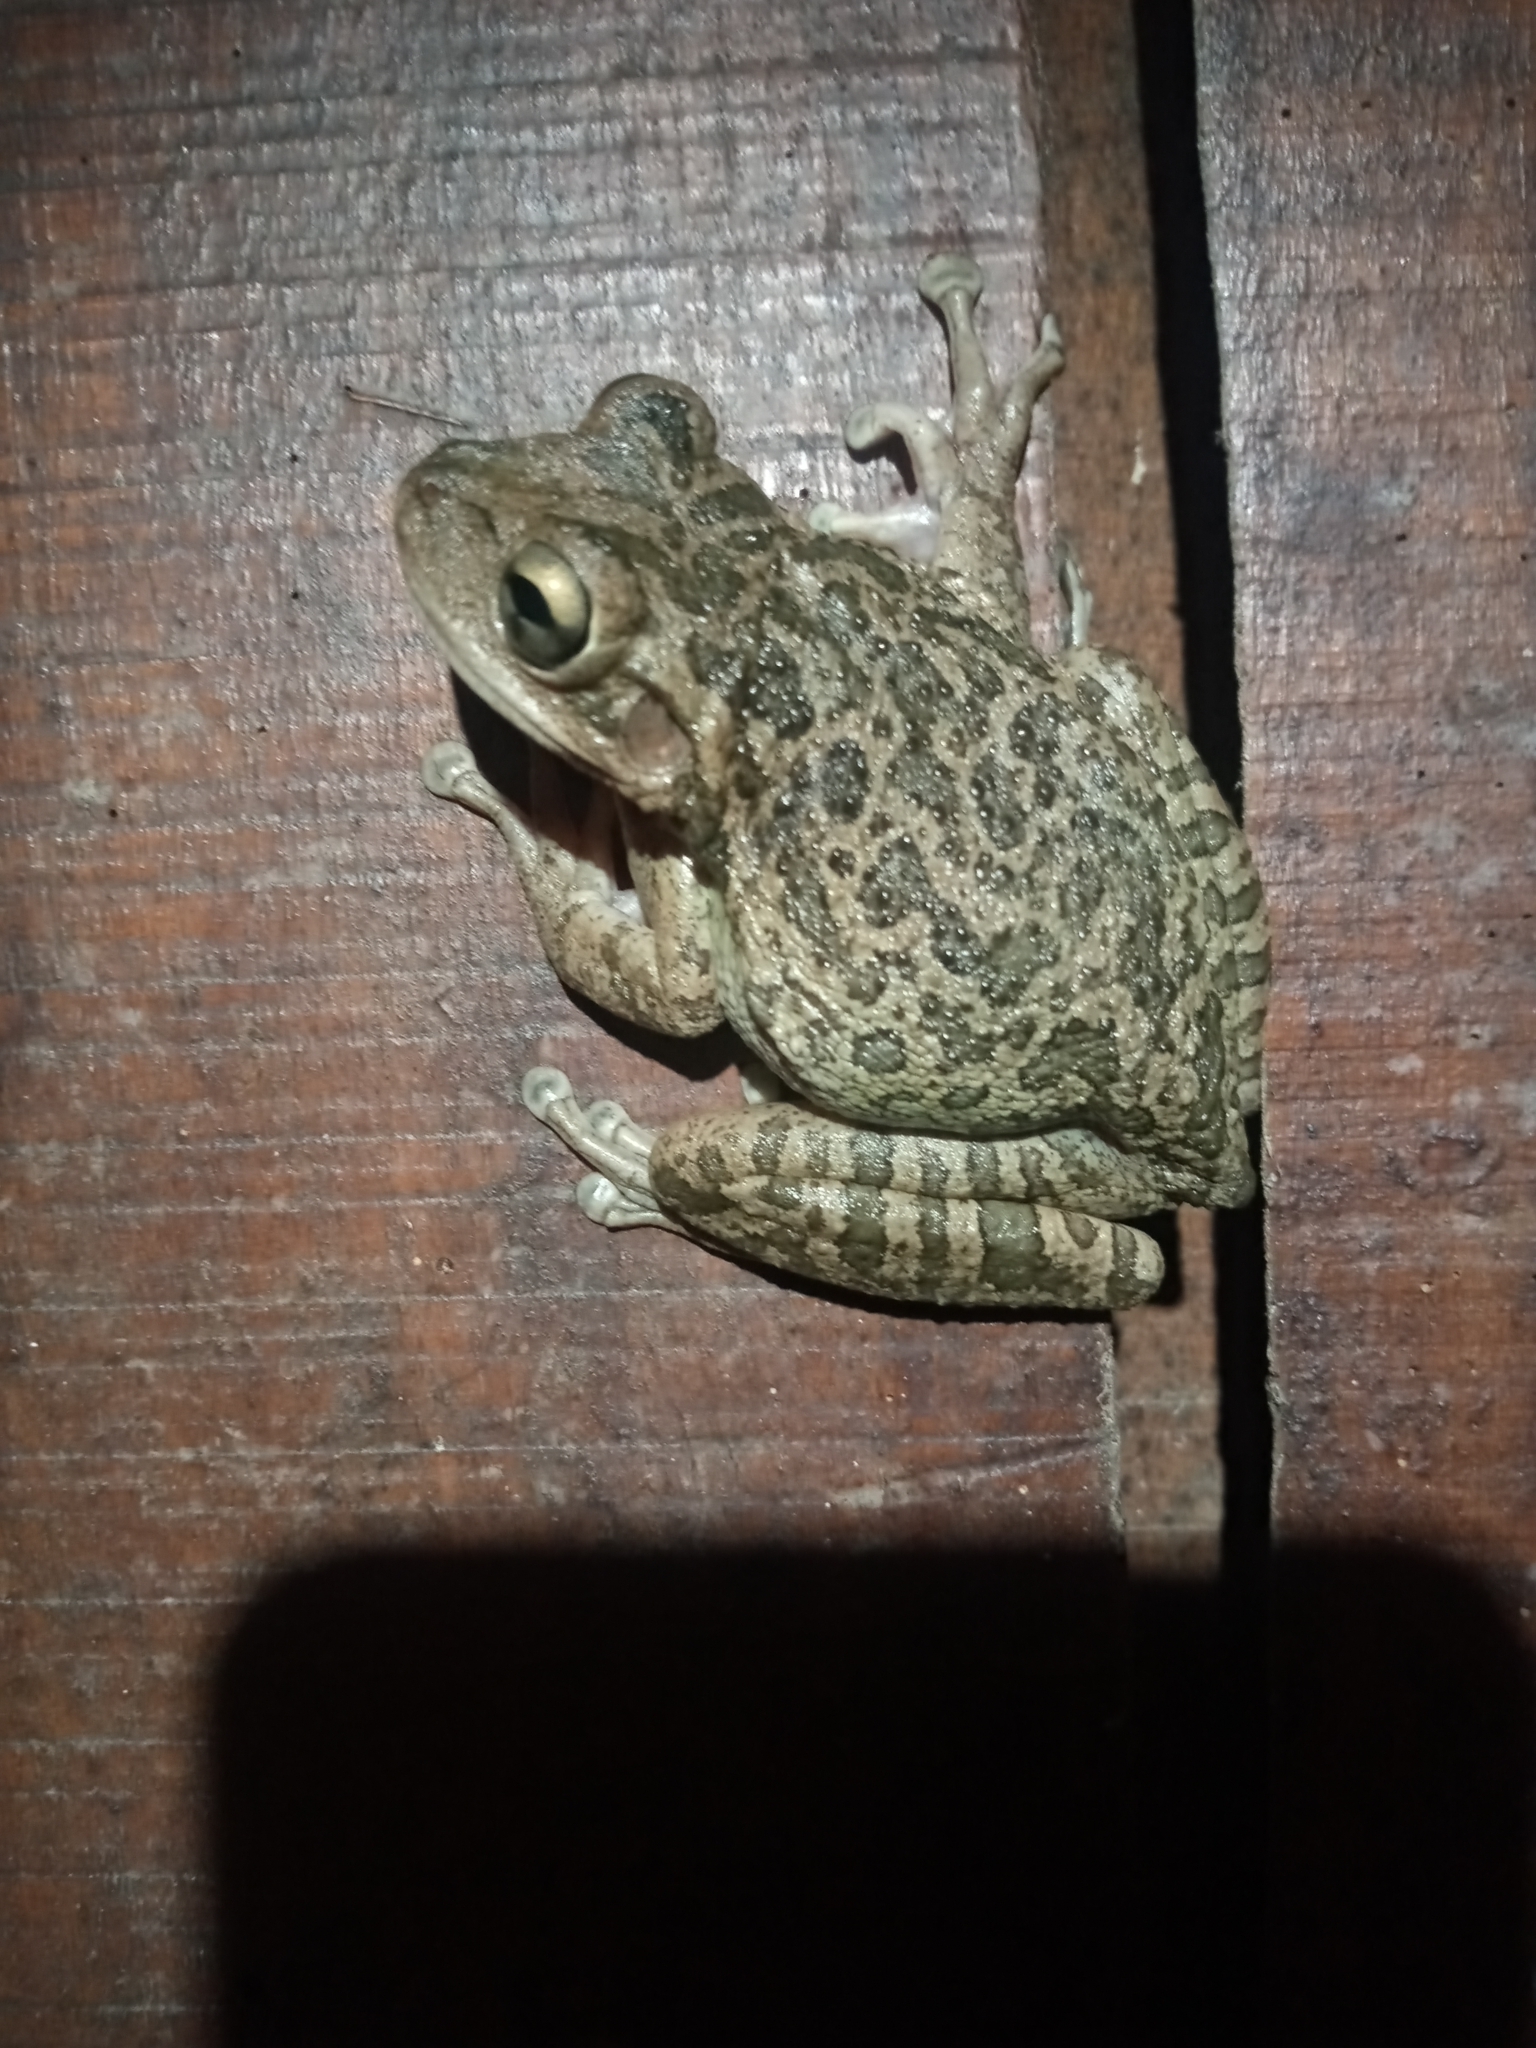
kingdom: Animalia
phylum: Chordata
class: Amphibia
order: Anura
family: Hylidae
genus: Osteopilus
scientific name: Osteopilus septentrionalis
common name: Cuban treefrog
